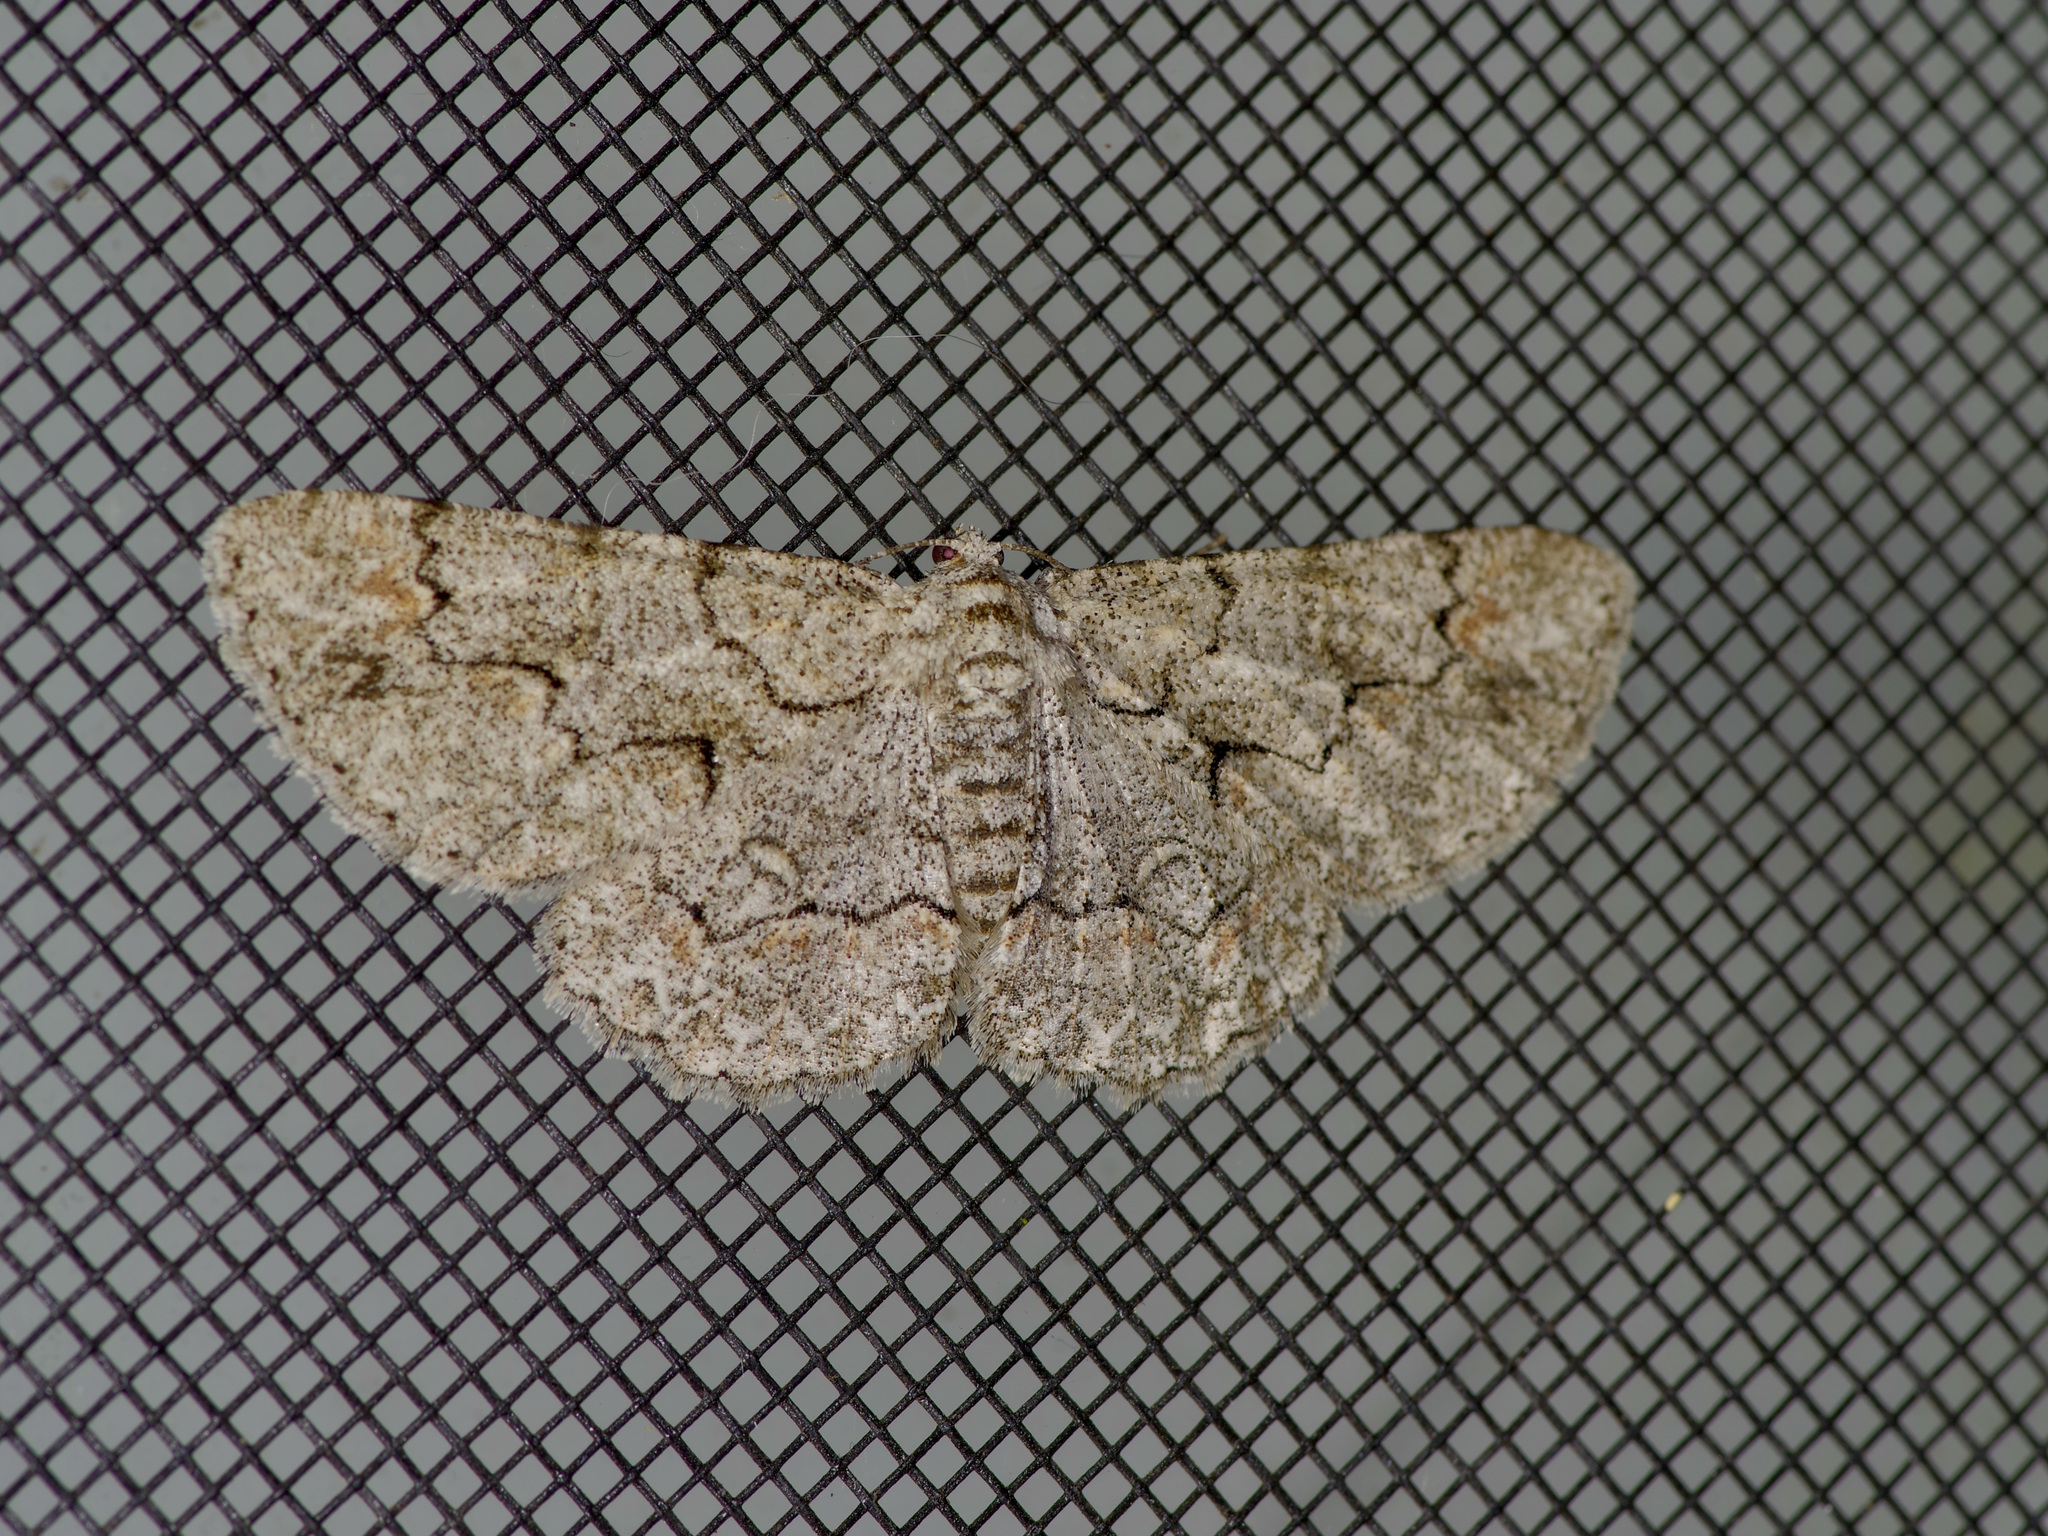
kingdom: Animalia
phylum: Arthropoda
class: Insecta
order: Lepidoptera
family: Geometridae
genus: Iridopsis
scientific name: Iridopsis defectaria
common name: Brown-shaded gray
